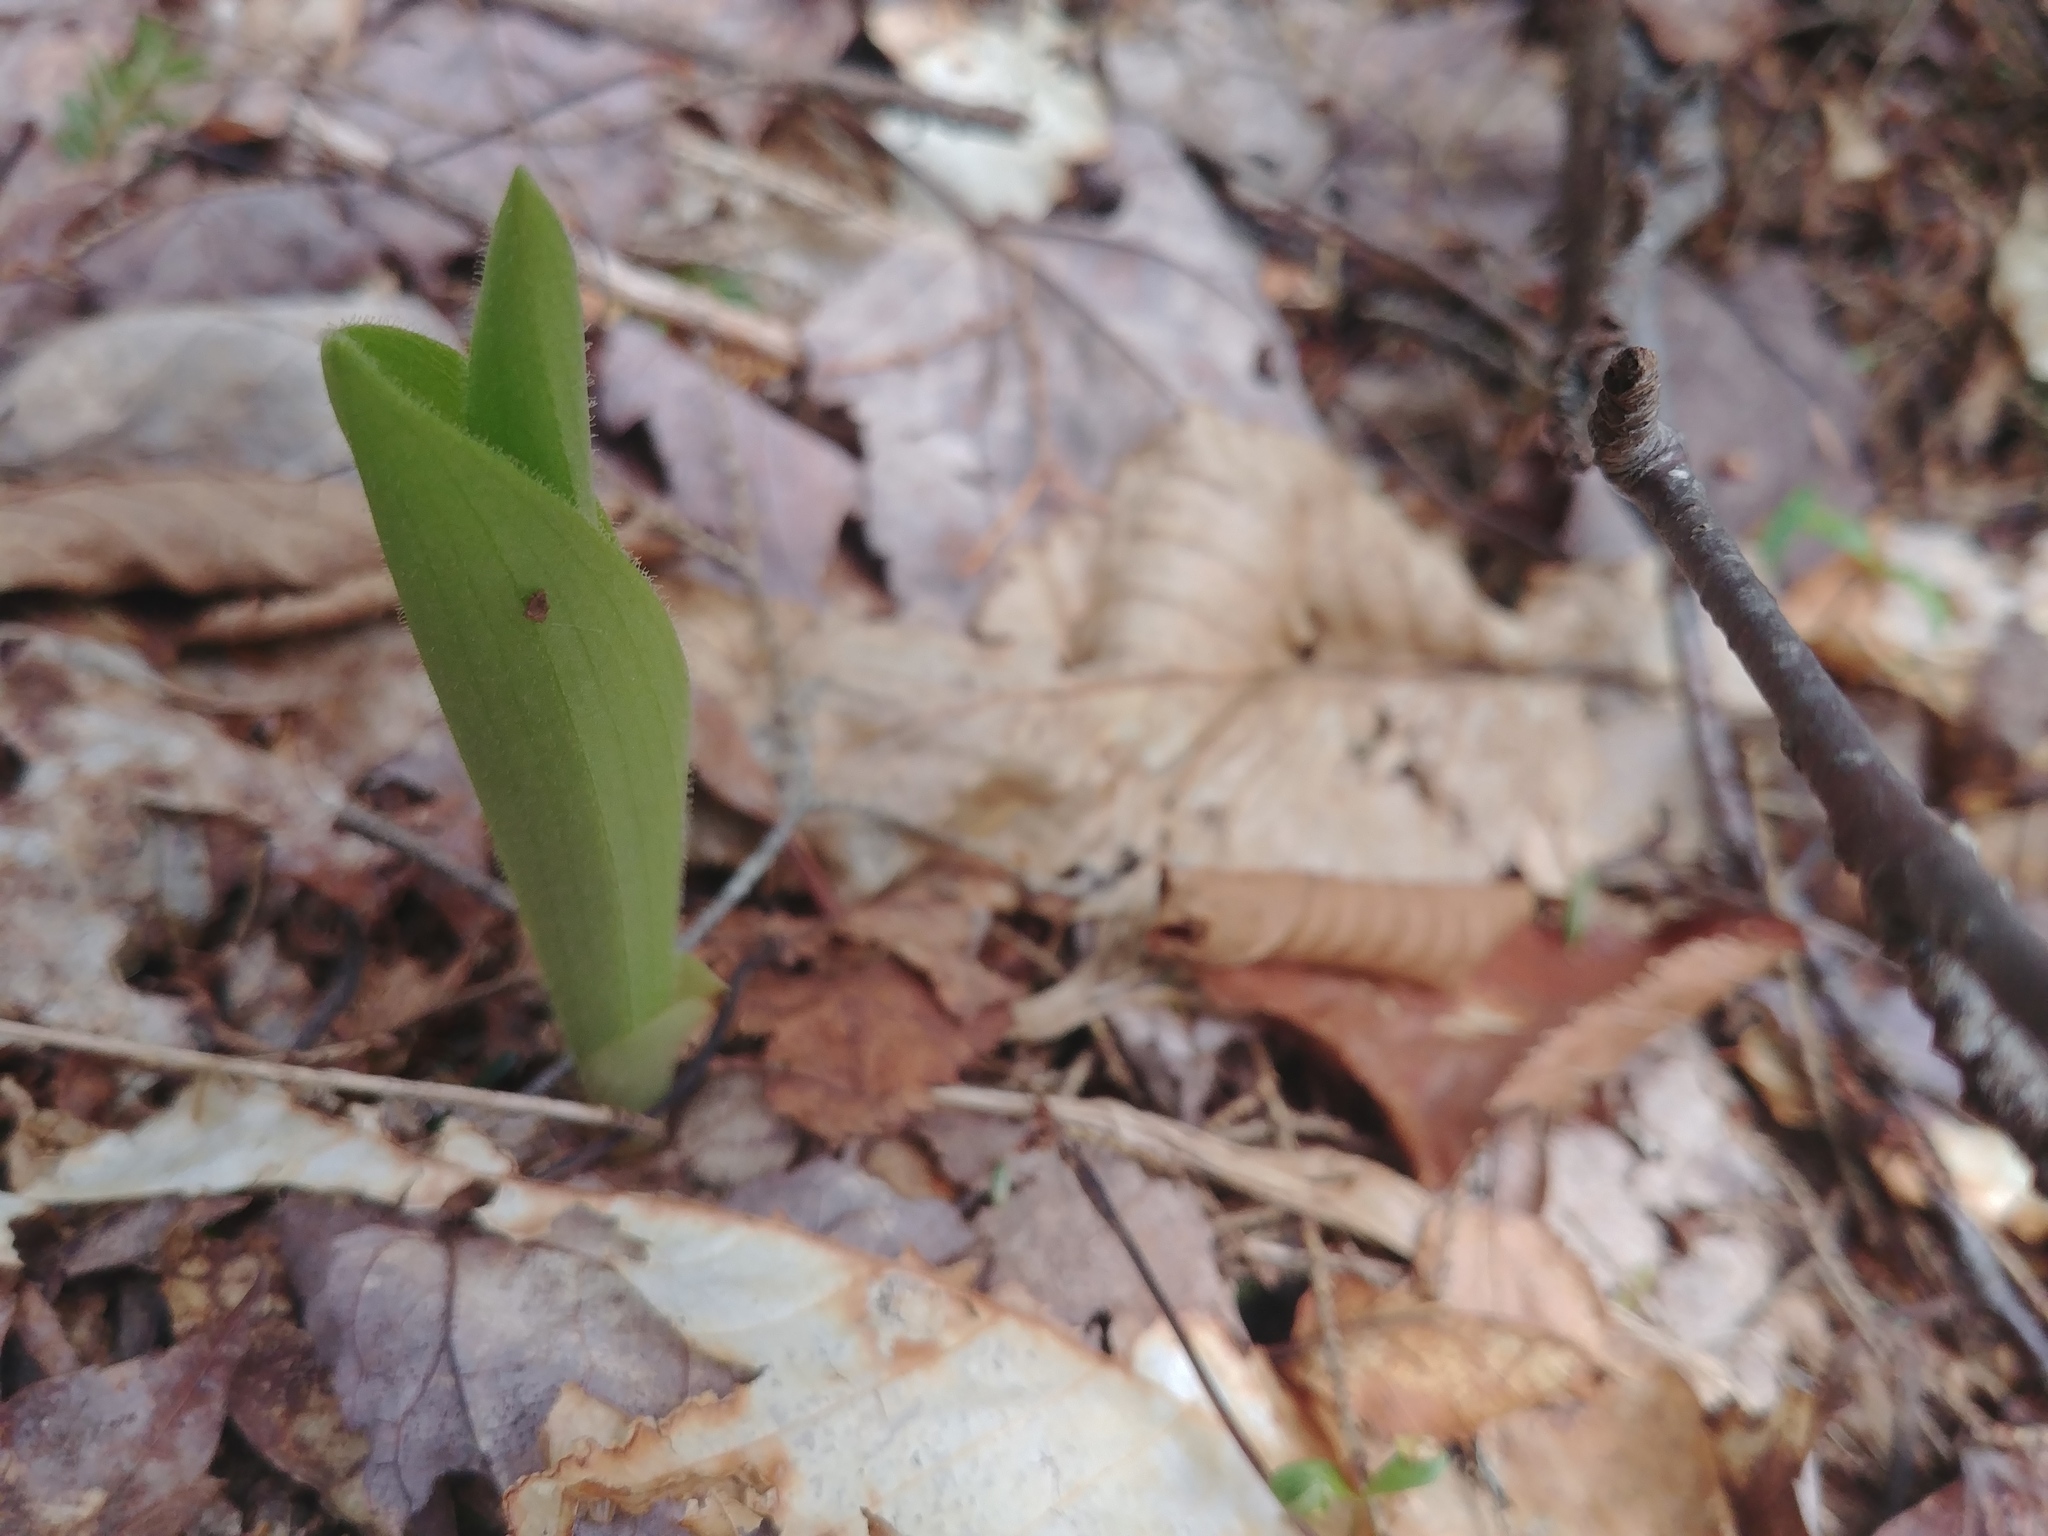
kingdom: Plantae
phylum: Tracheophyta
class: Liliopsida
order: Asparagales
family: Orchidaceae
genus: Cypripedium
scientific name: Cypripedium acaule
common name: Pink lady's-slipper
